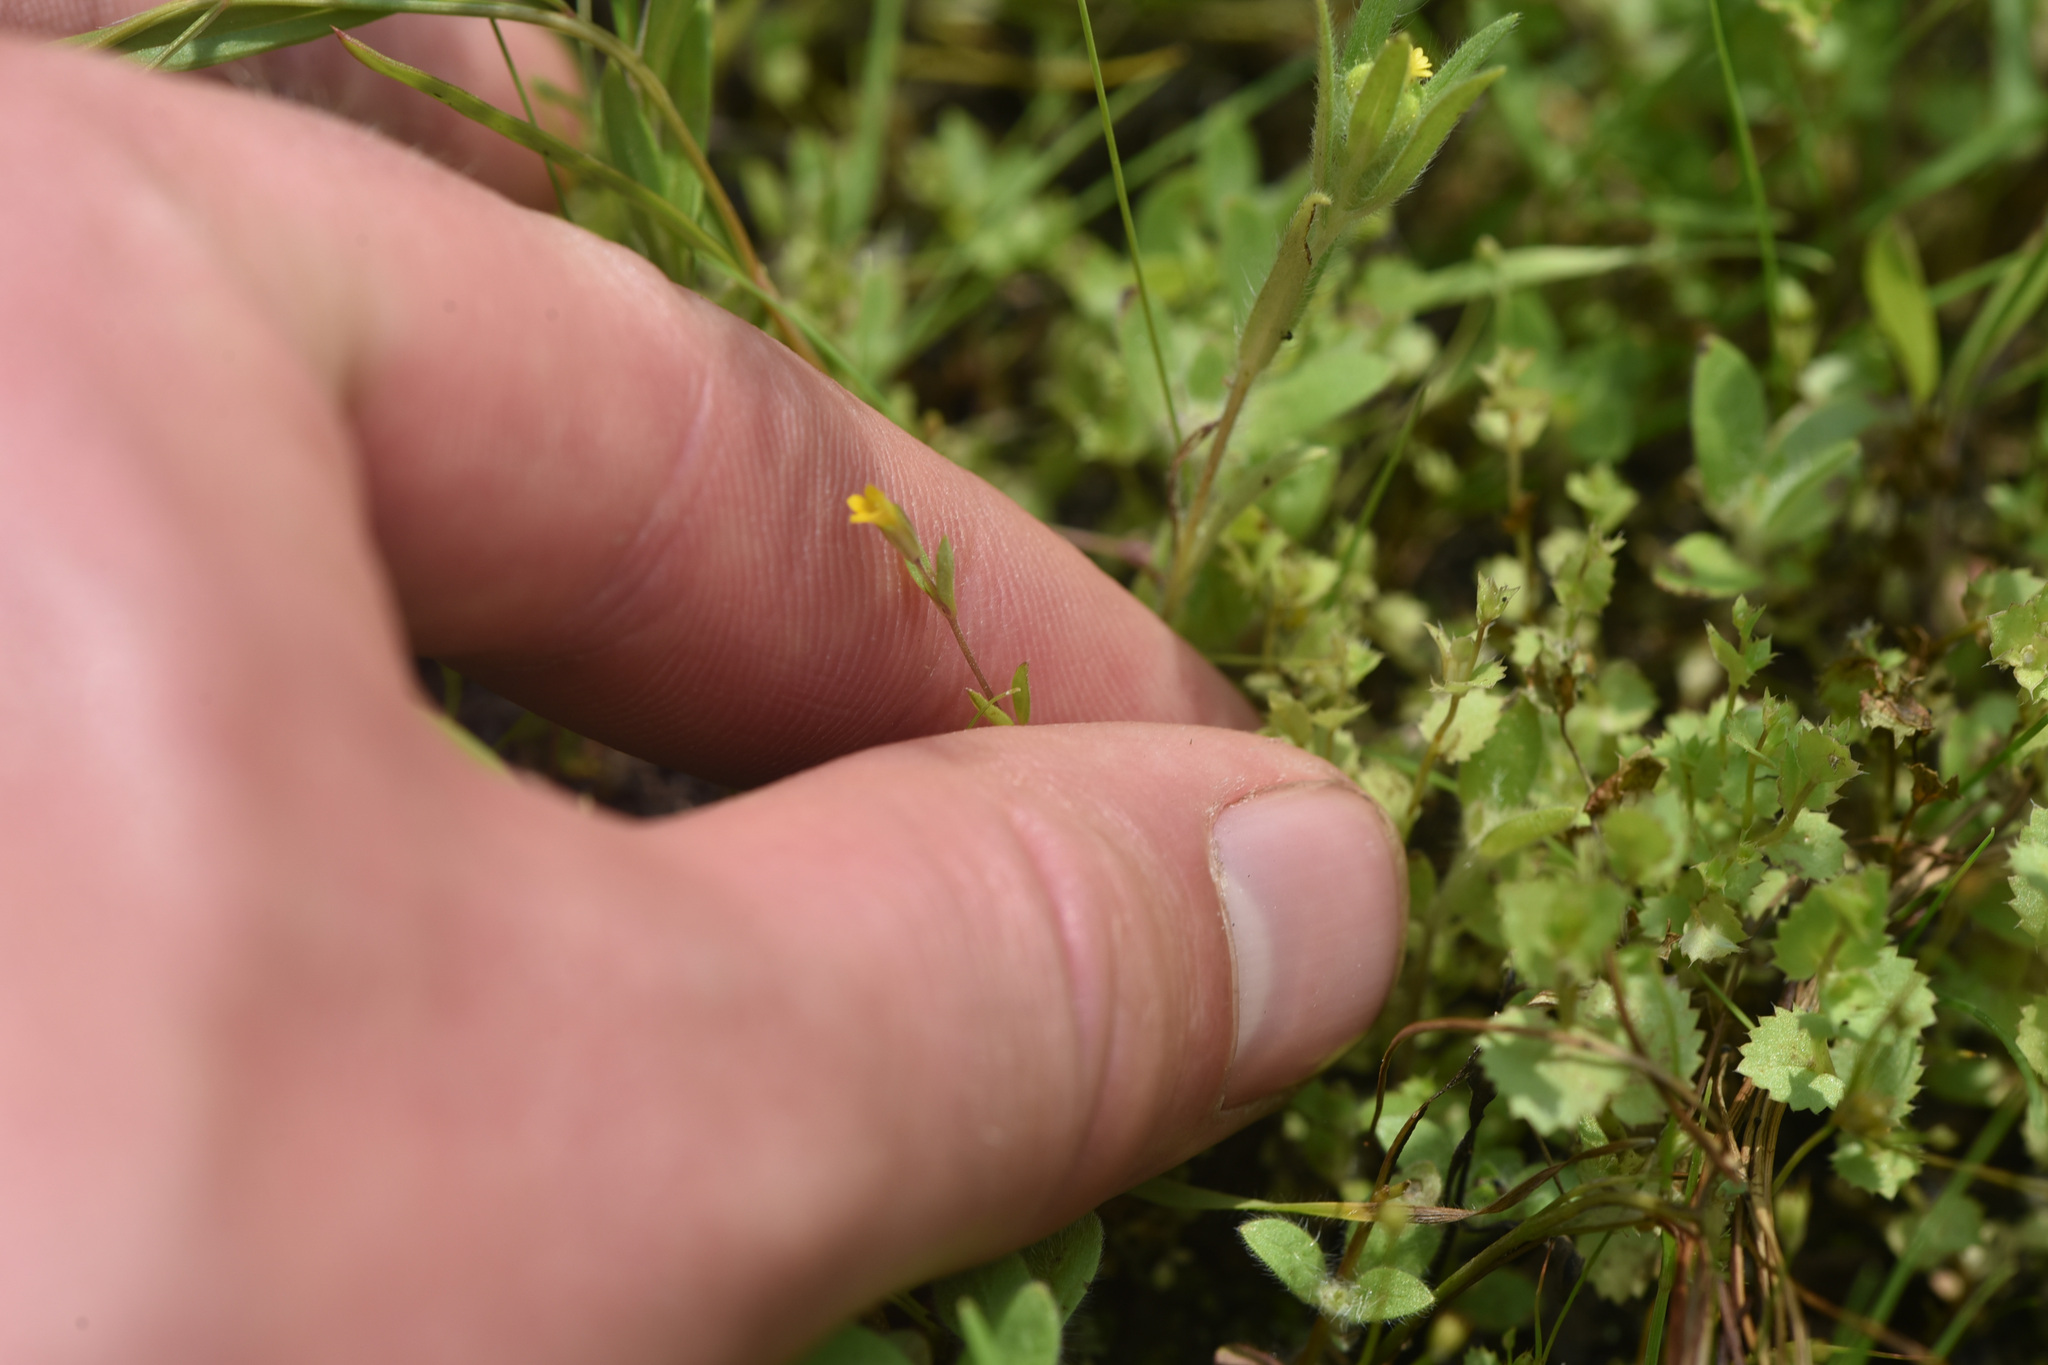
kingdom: Plantae
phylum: Tracheophyta
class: Magnoliopsida
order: Lamiales
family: Phrymaceae
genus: Erythranthe
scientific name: Erythranthe breviflora
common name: Short-flowered monkeyflower
